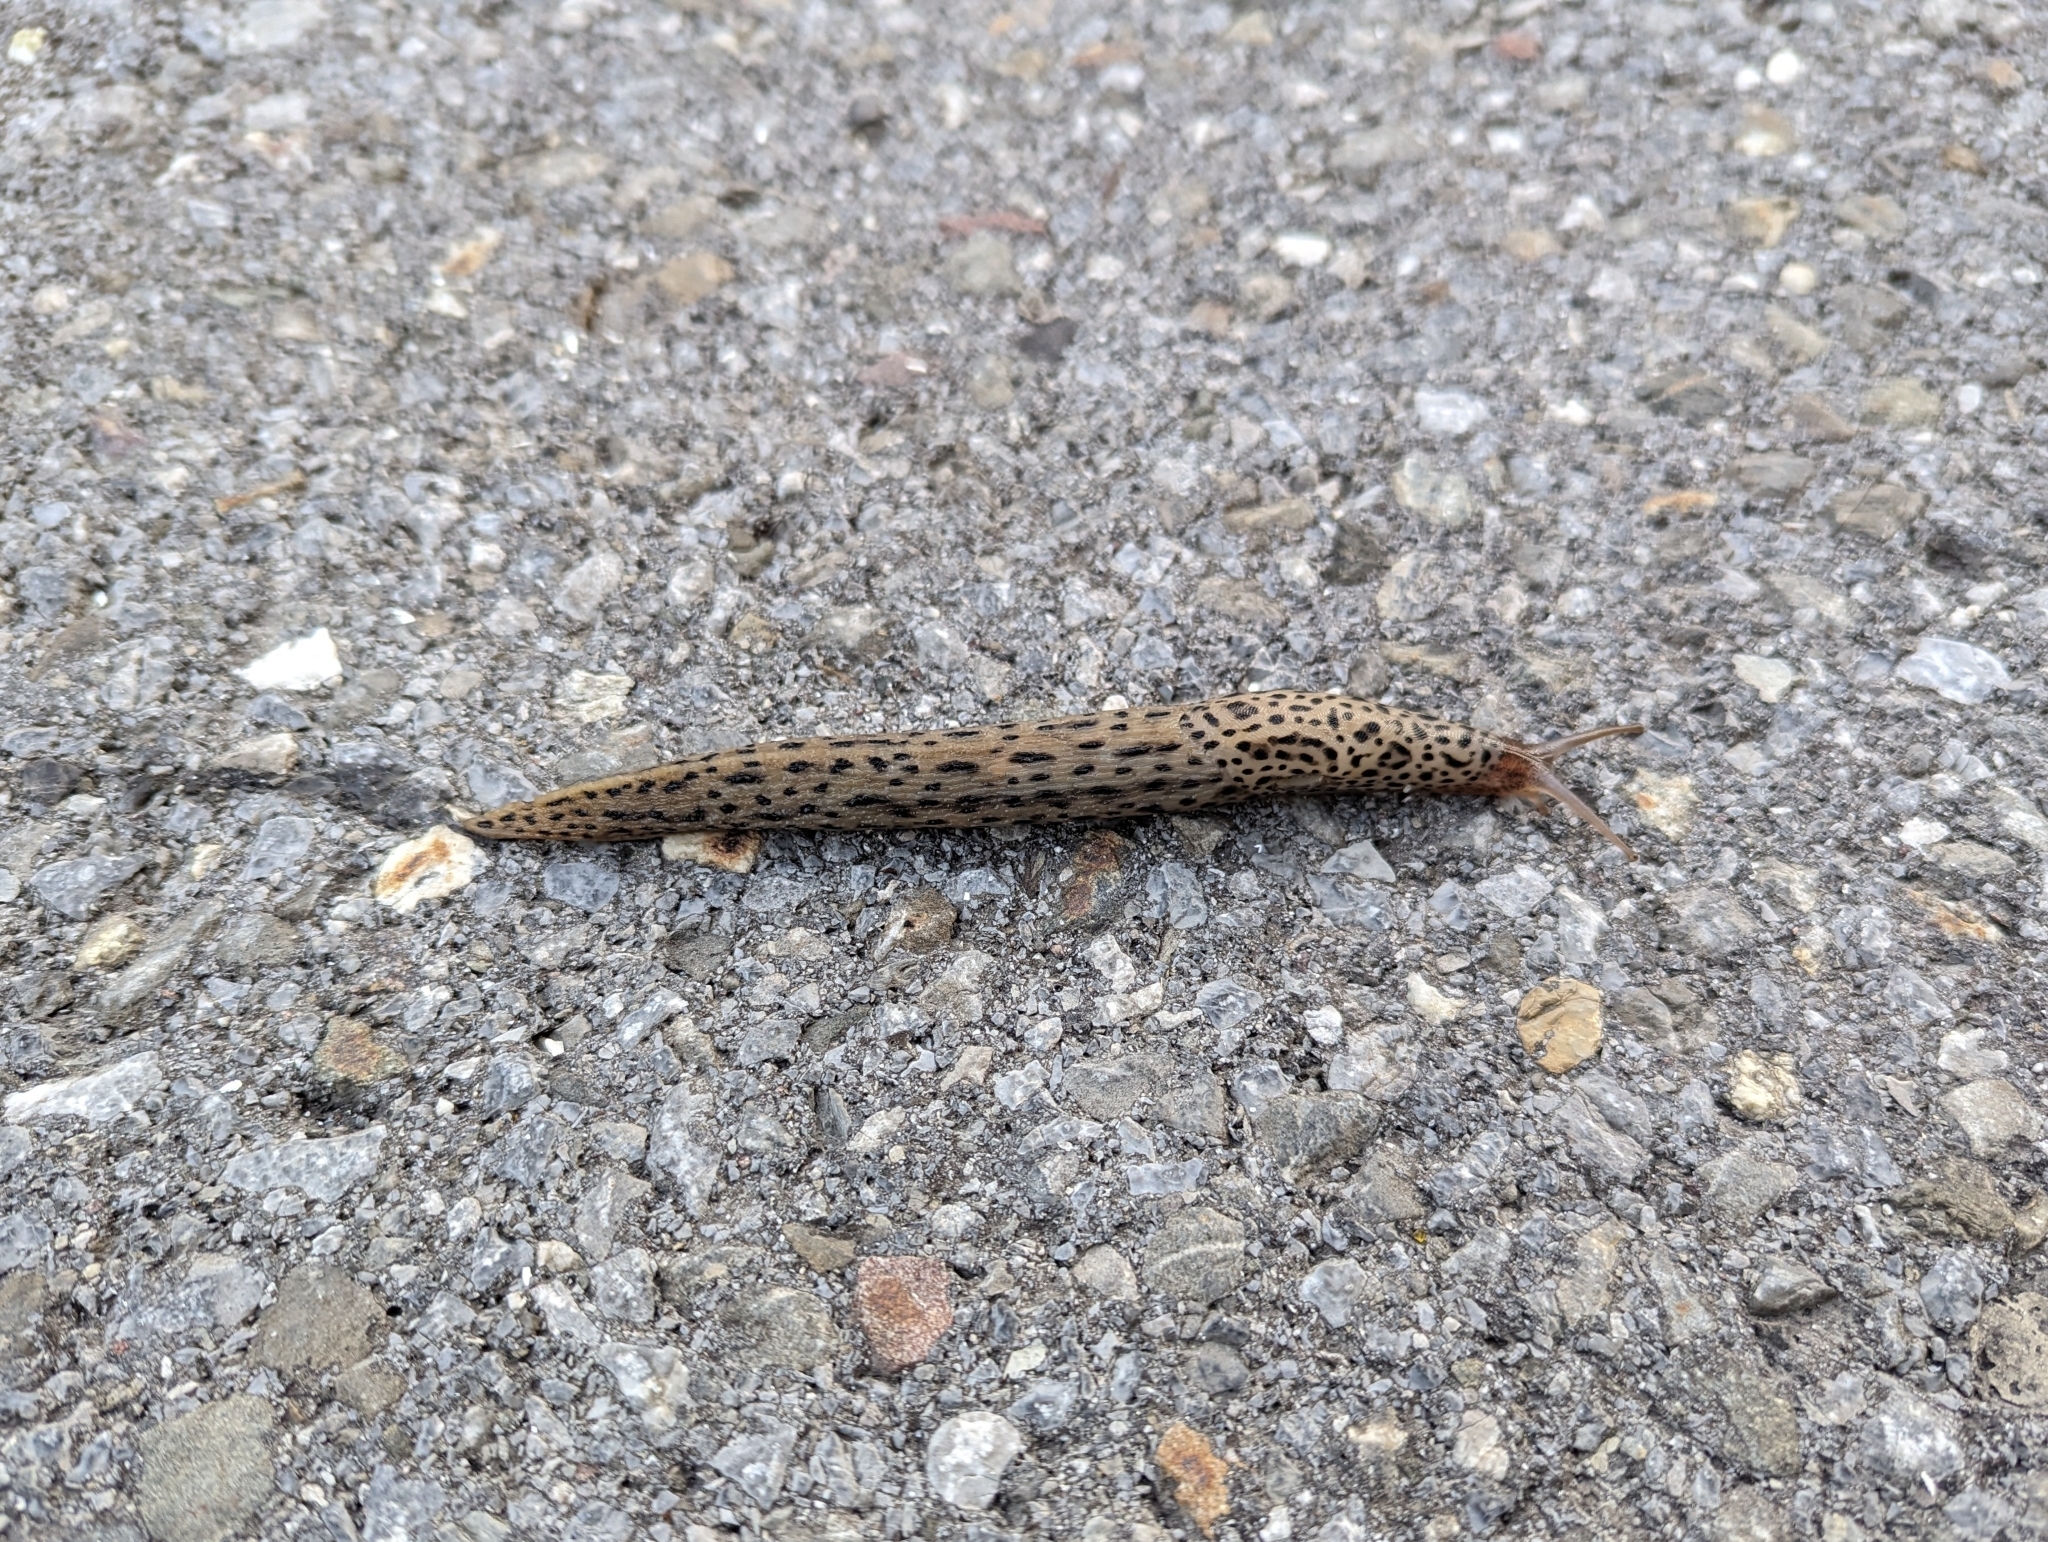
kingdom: Animalia
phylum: Mollusca
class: Gastropoda
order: Stylommatophora
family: Limacidae
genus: Limax
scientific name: Limax maximus
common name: Great grey slug
